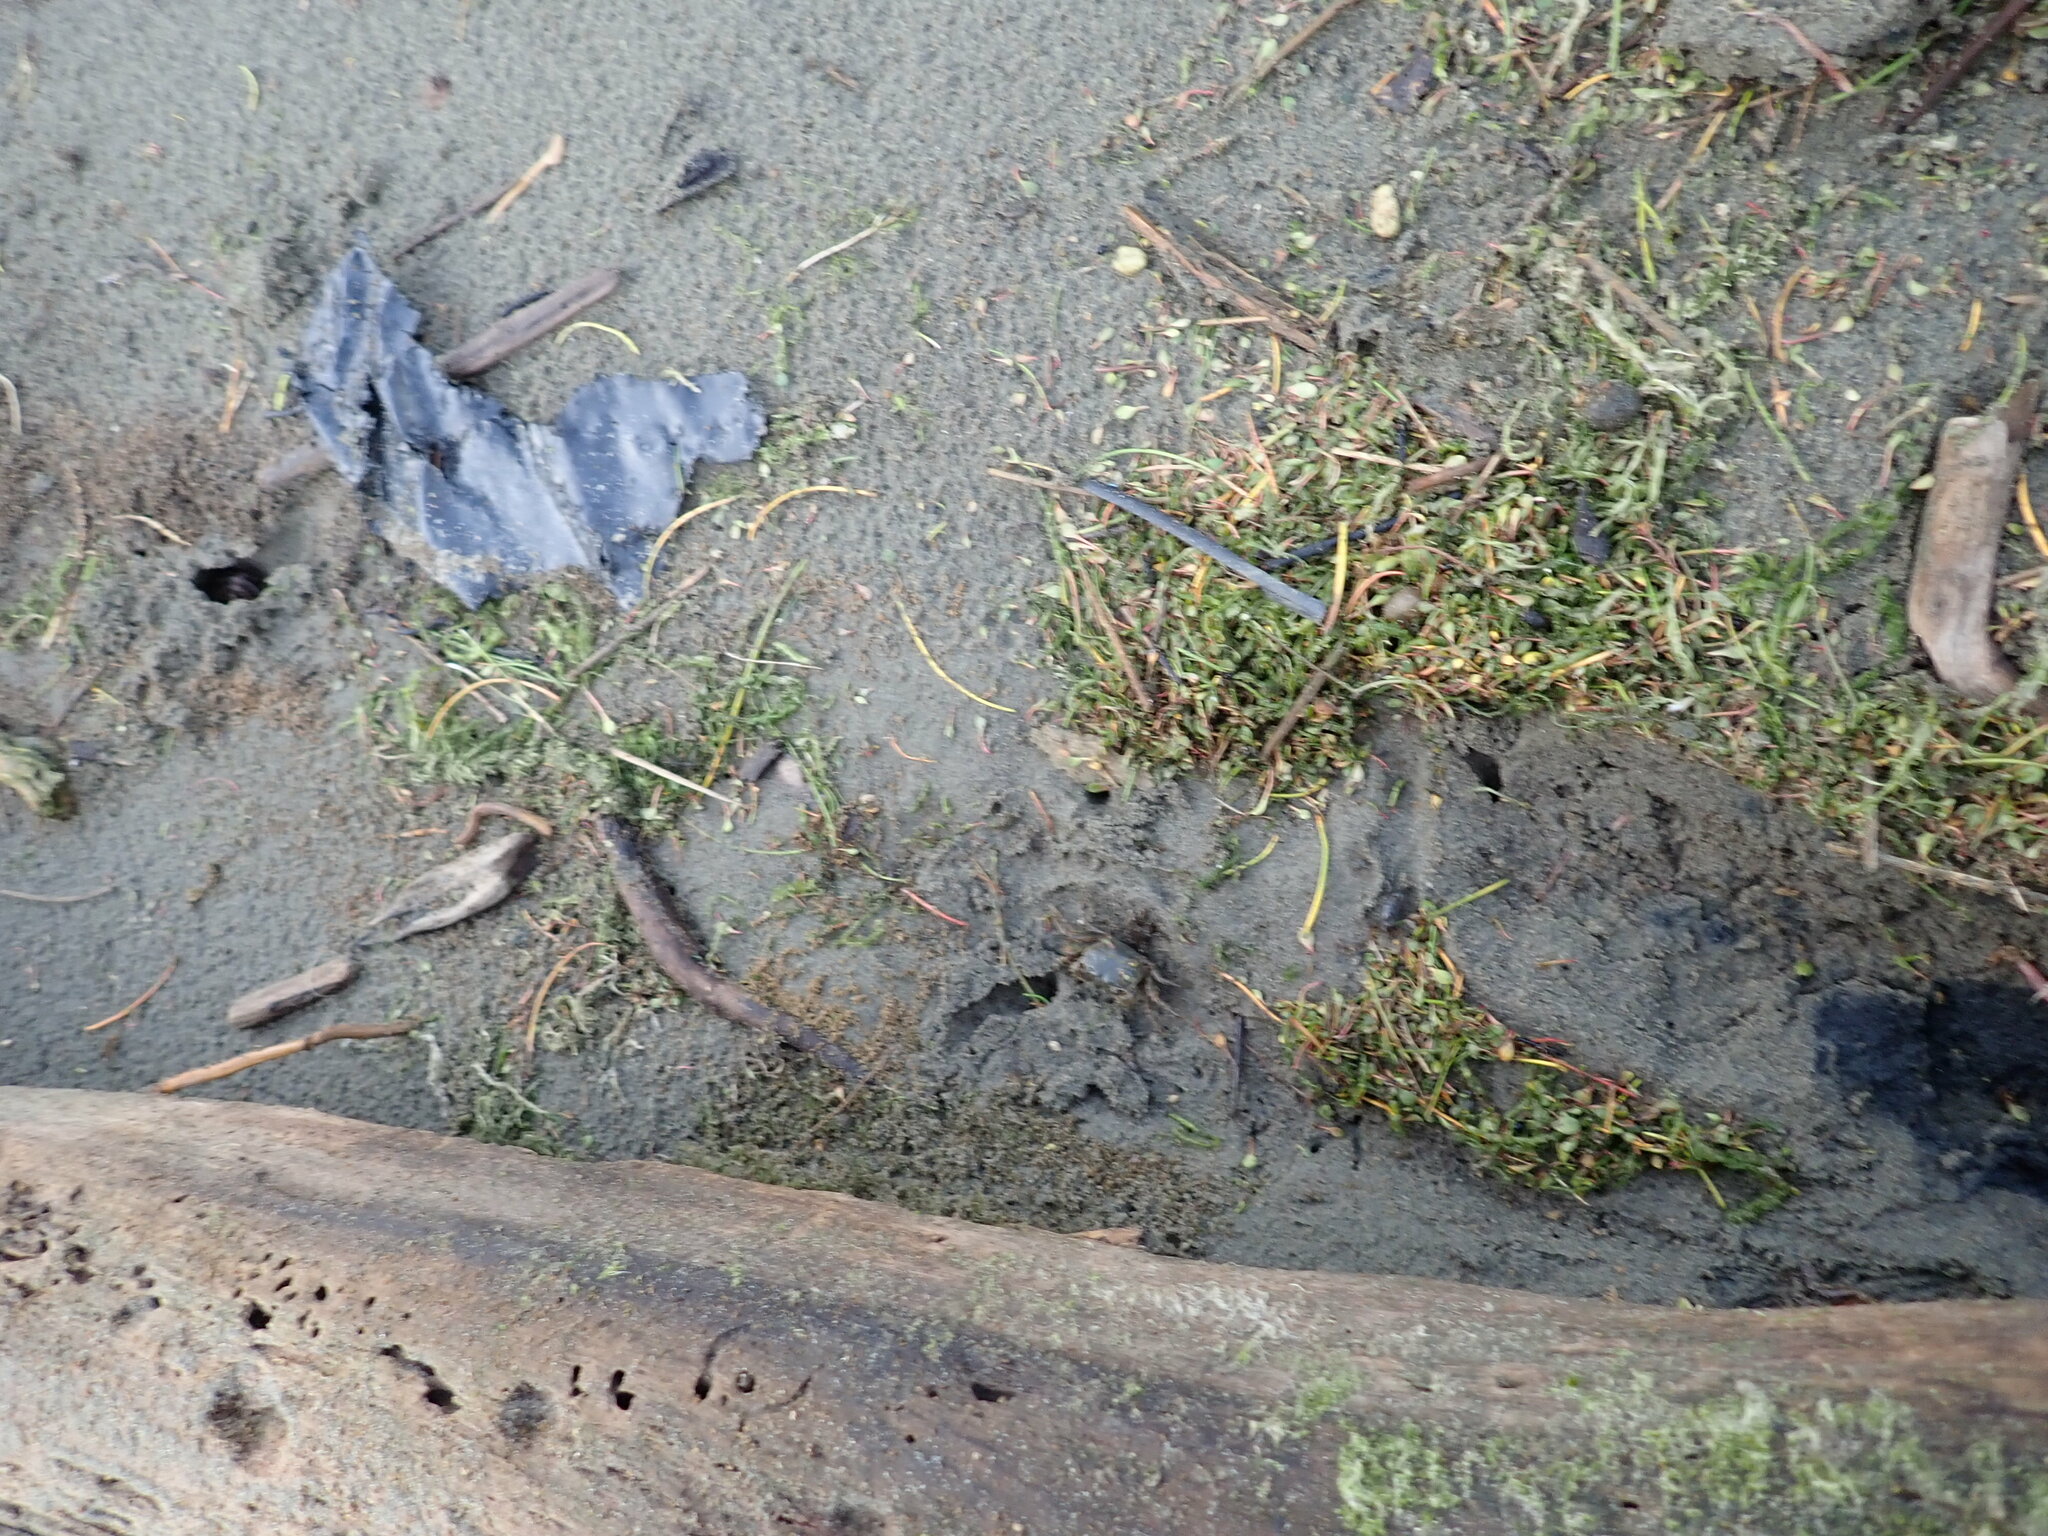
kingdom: Animalia
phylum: Arthropoda
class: Malacostraca
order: Decapoda
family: Varunidae
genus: Austrohelice
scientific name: Austrohelice crassa
